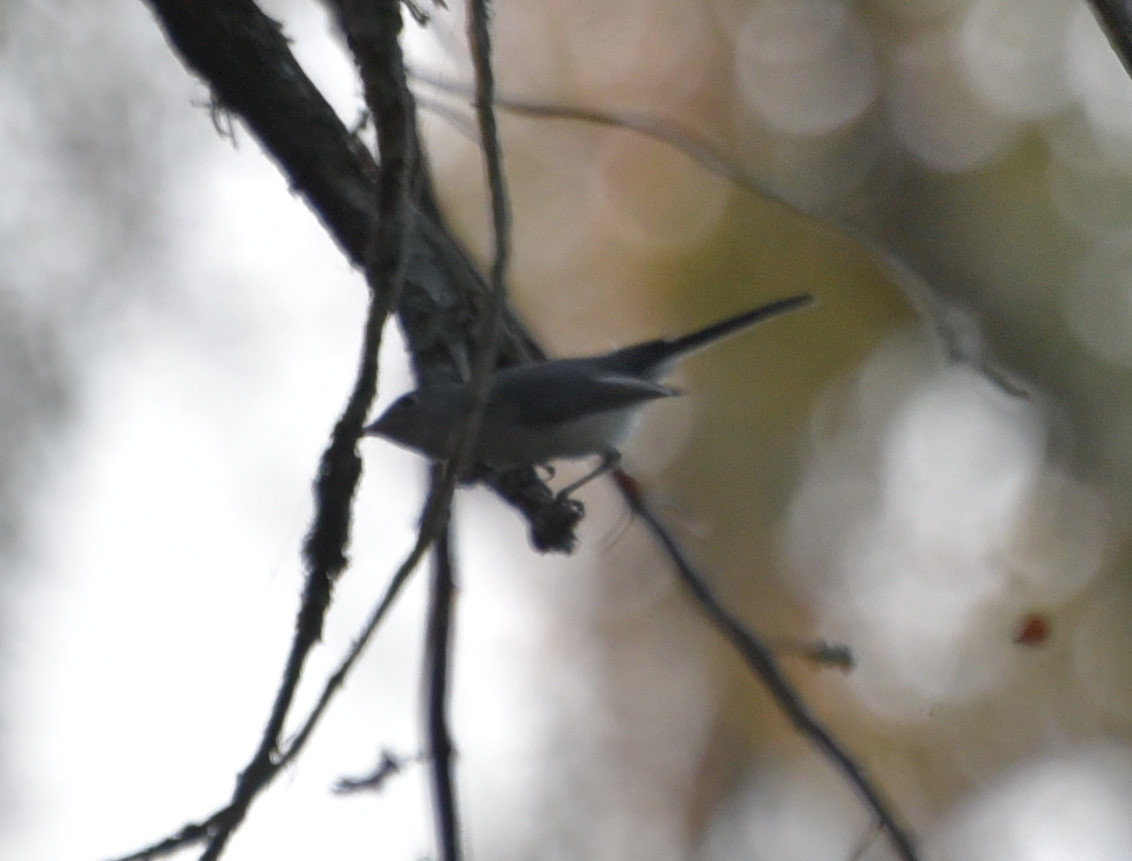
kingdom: Animalia
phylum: Chordata
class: Aves
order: Passeriformes
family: Polioptilidae
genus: Polioptila
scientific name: Polioptila caerulea
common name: Blue-gray gnatcatcher
